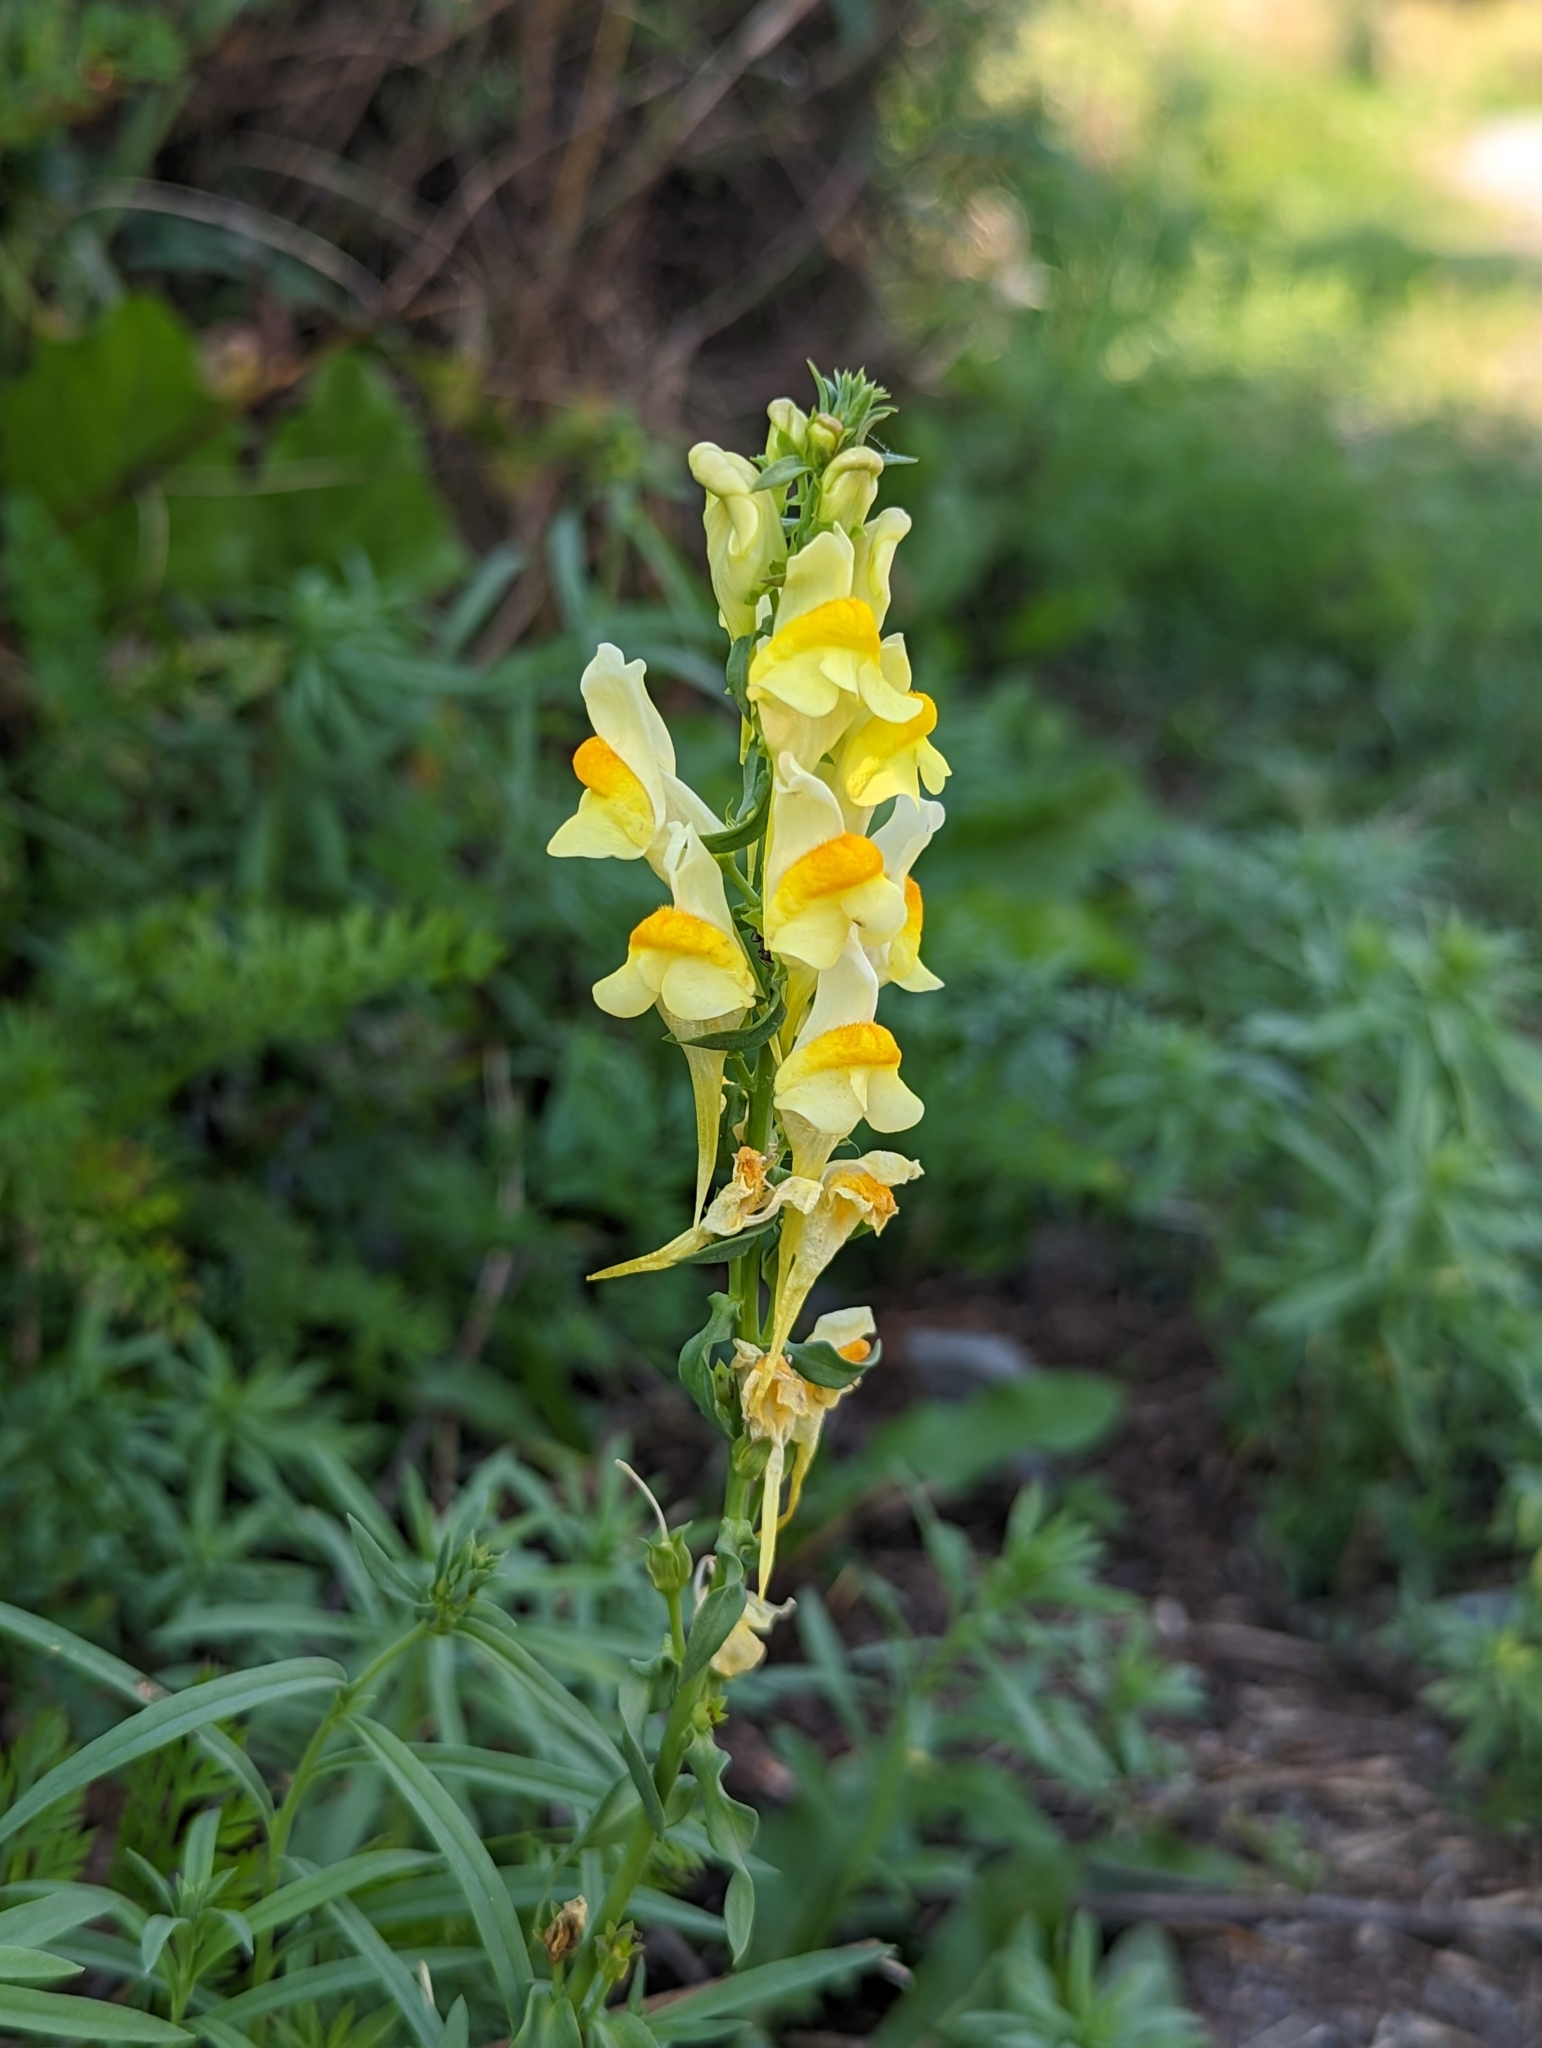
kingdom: Plantae
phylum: Tracheophyta
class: Magnoliopsida
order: Lamiales
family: Plantaginaceae
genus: Linaria
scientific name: Linaria vulgaris
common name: Butter and eggs
